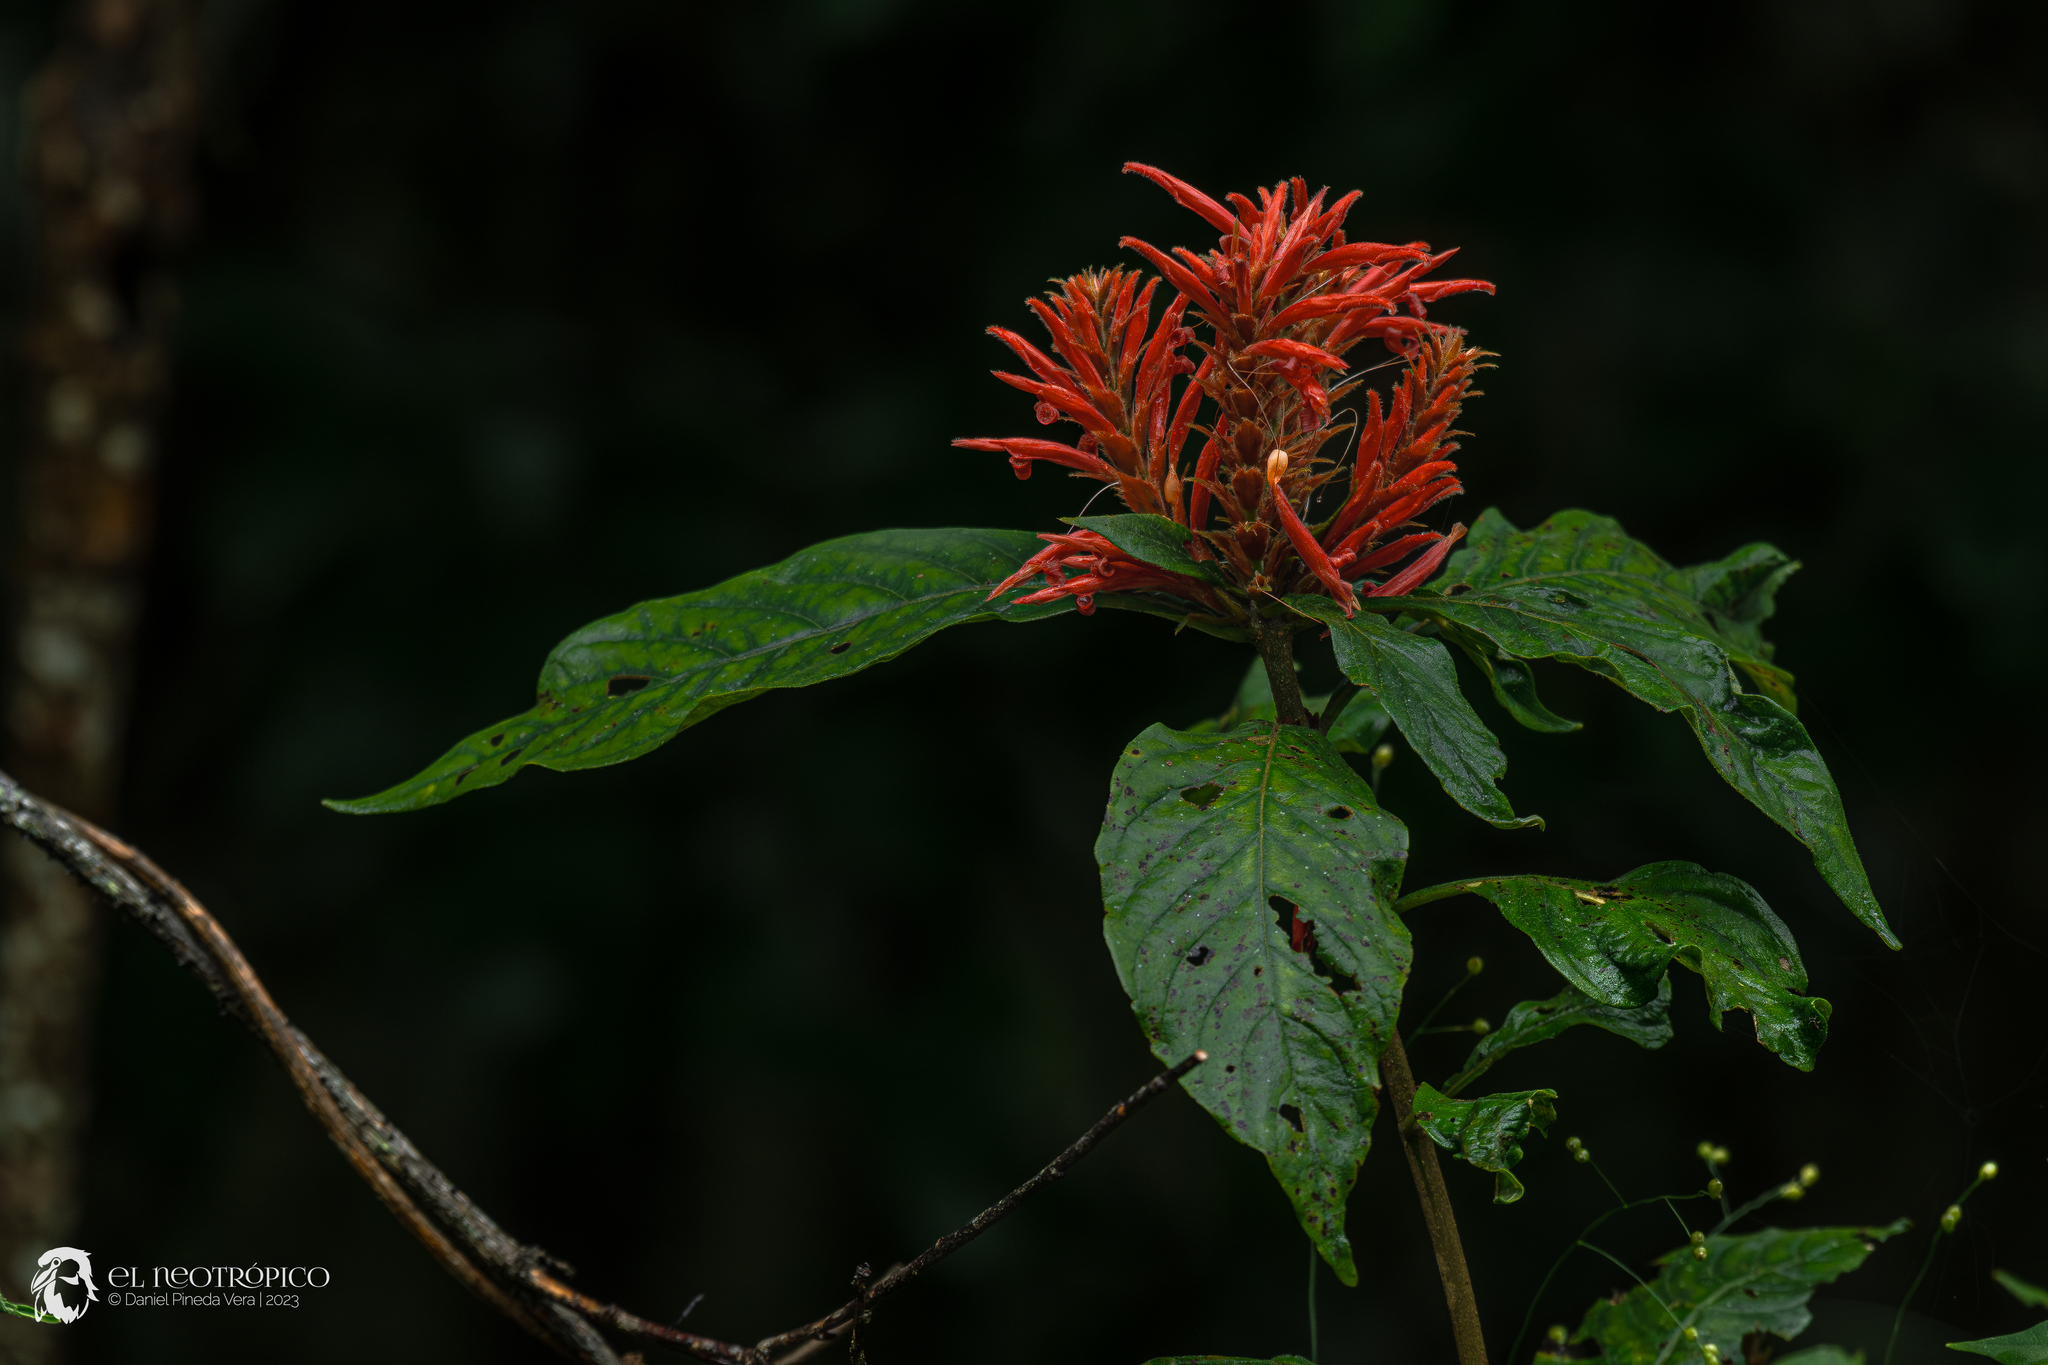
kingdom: Plantae
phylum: Tracheophyta
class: Magnoliopsida
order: Lamiales
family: Acanthaceae
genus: Aphelandra
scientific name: Aphelandra scabra
